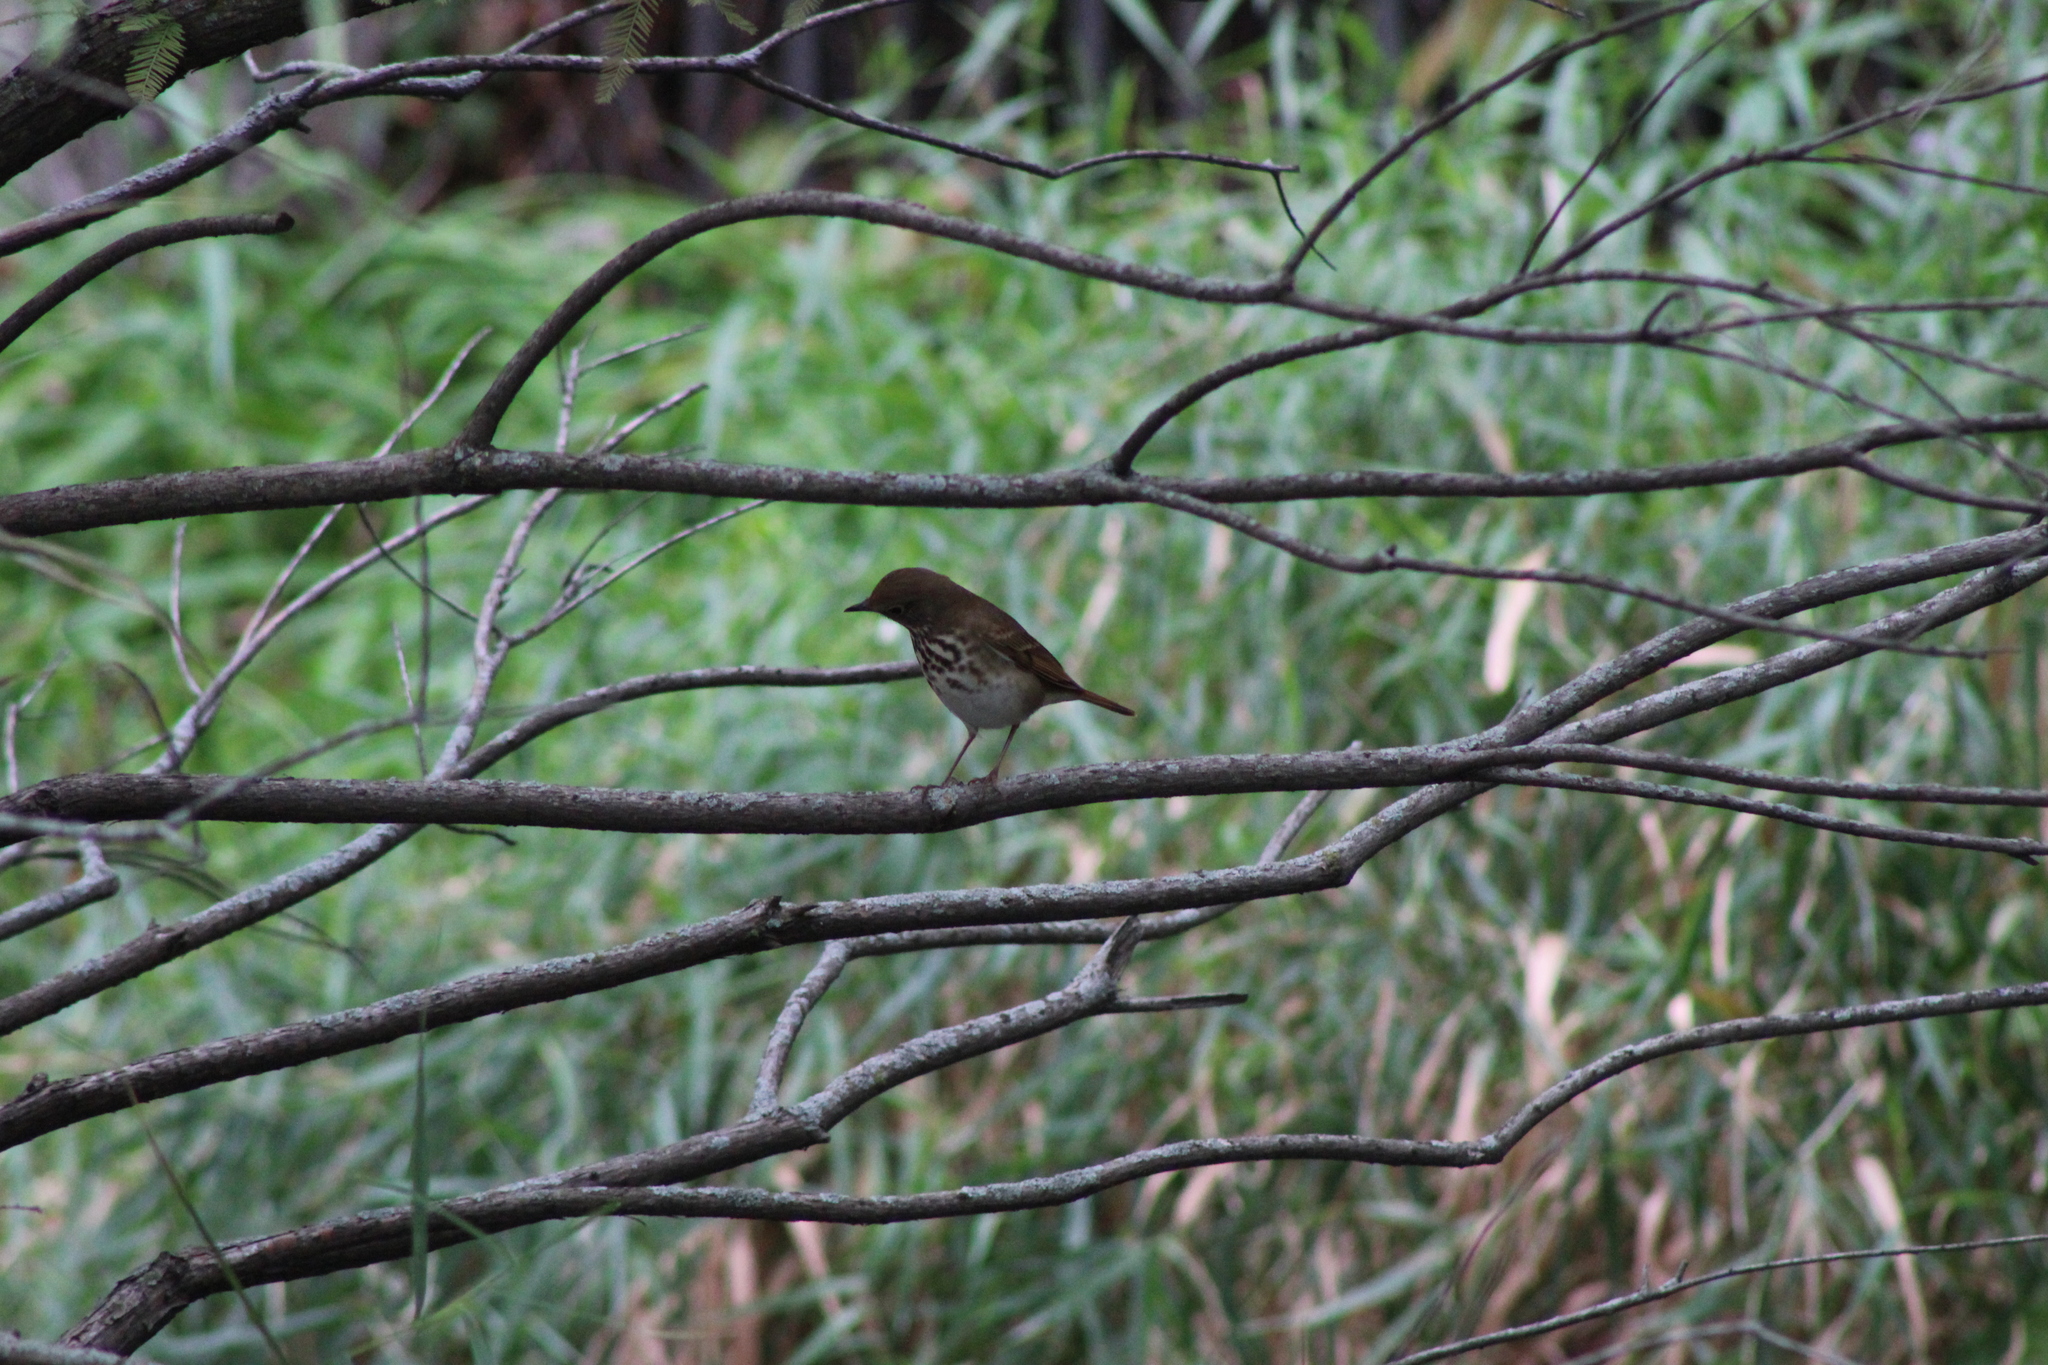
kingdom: Animalia
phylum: Chordata
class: Aves
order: Passeriformes
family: Turdidae
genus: Catharus
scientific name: Catharus guttatus
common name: Hermit thrush
